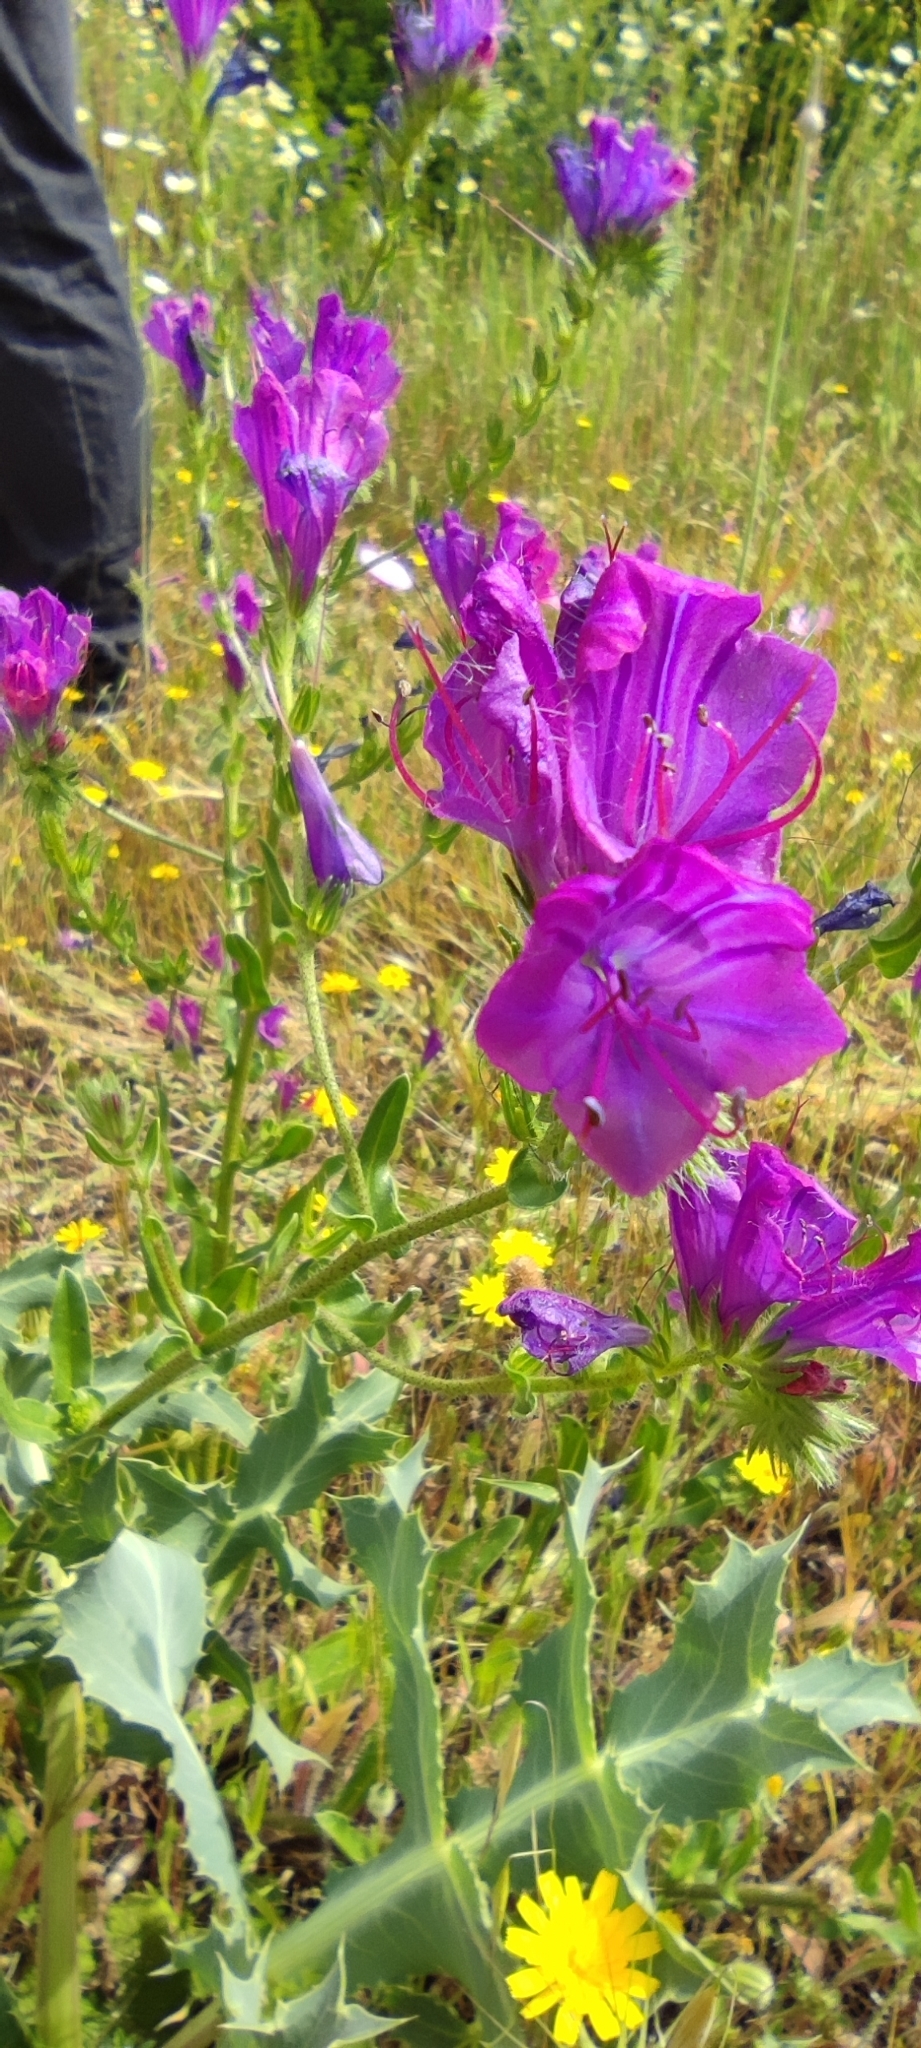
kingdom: Plantae
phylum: Tracheophyta
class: Magnoliopsida
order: Boraginales
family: Boraginaceae
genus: Echium
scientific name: Echium plantagineum
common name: Purple viper's-bugloss
